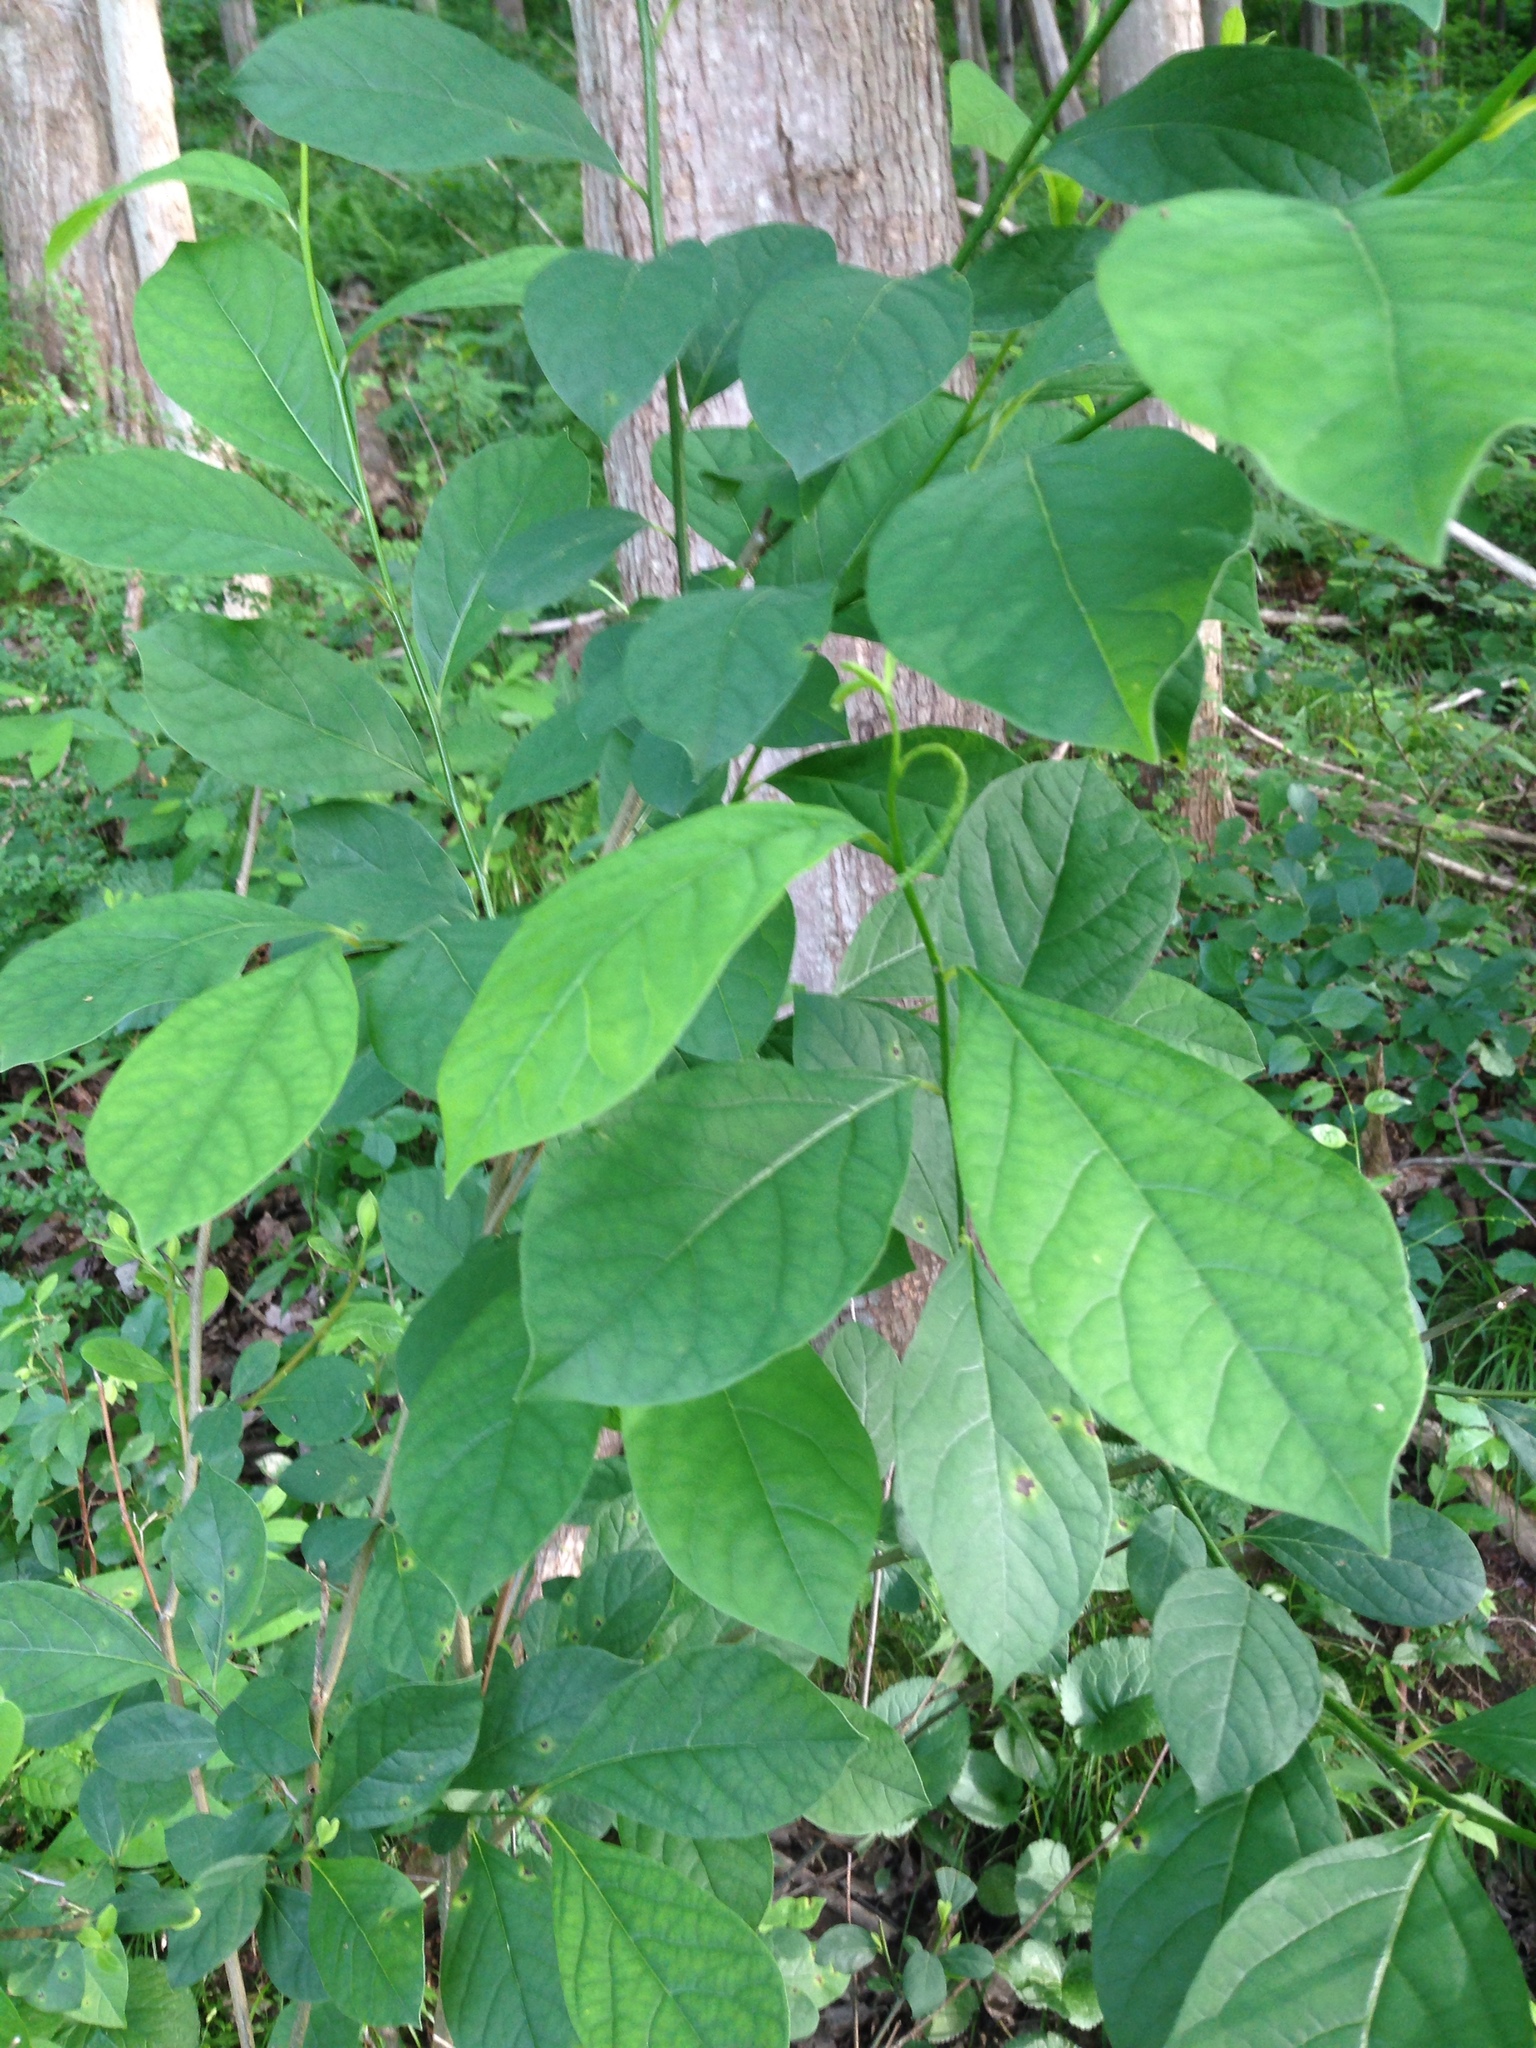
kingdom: Plantae
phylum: Tracheophyta
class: Magnoliopsida
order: Laurales
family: Lauraceae
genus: Lindera
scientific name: Lindera benzoin
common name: Spicebush
